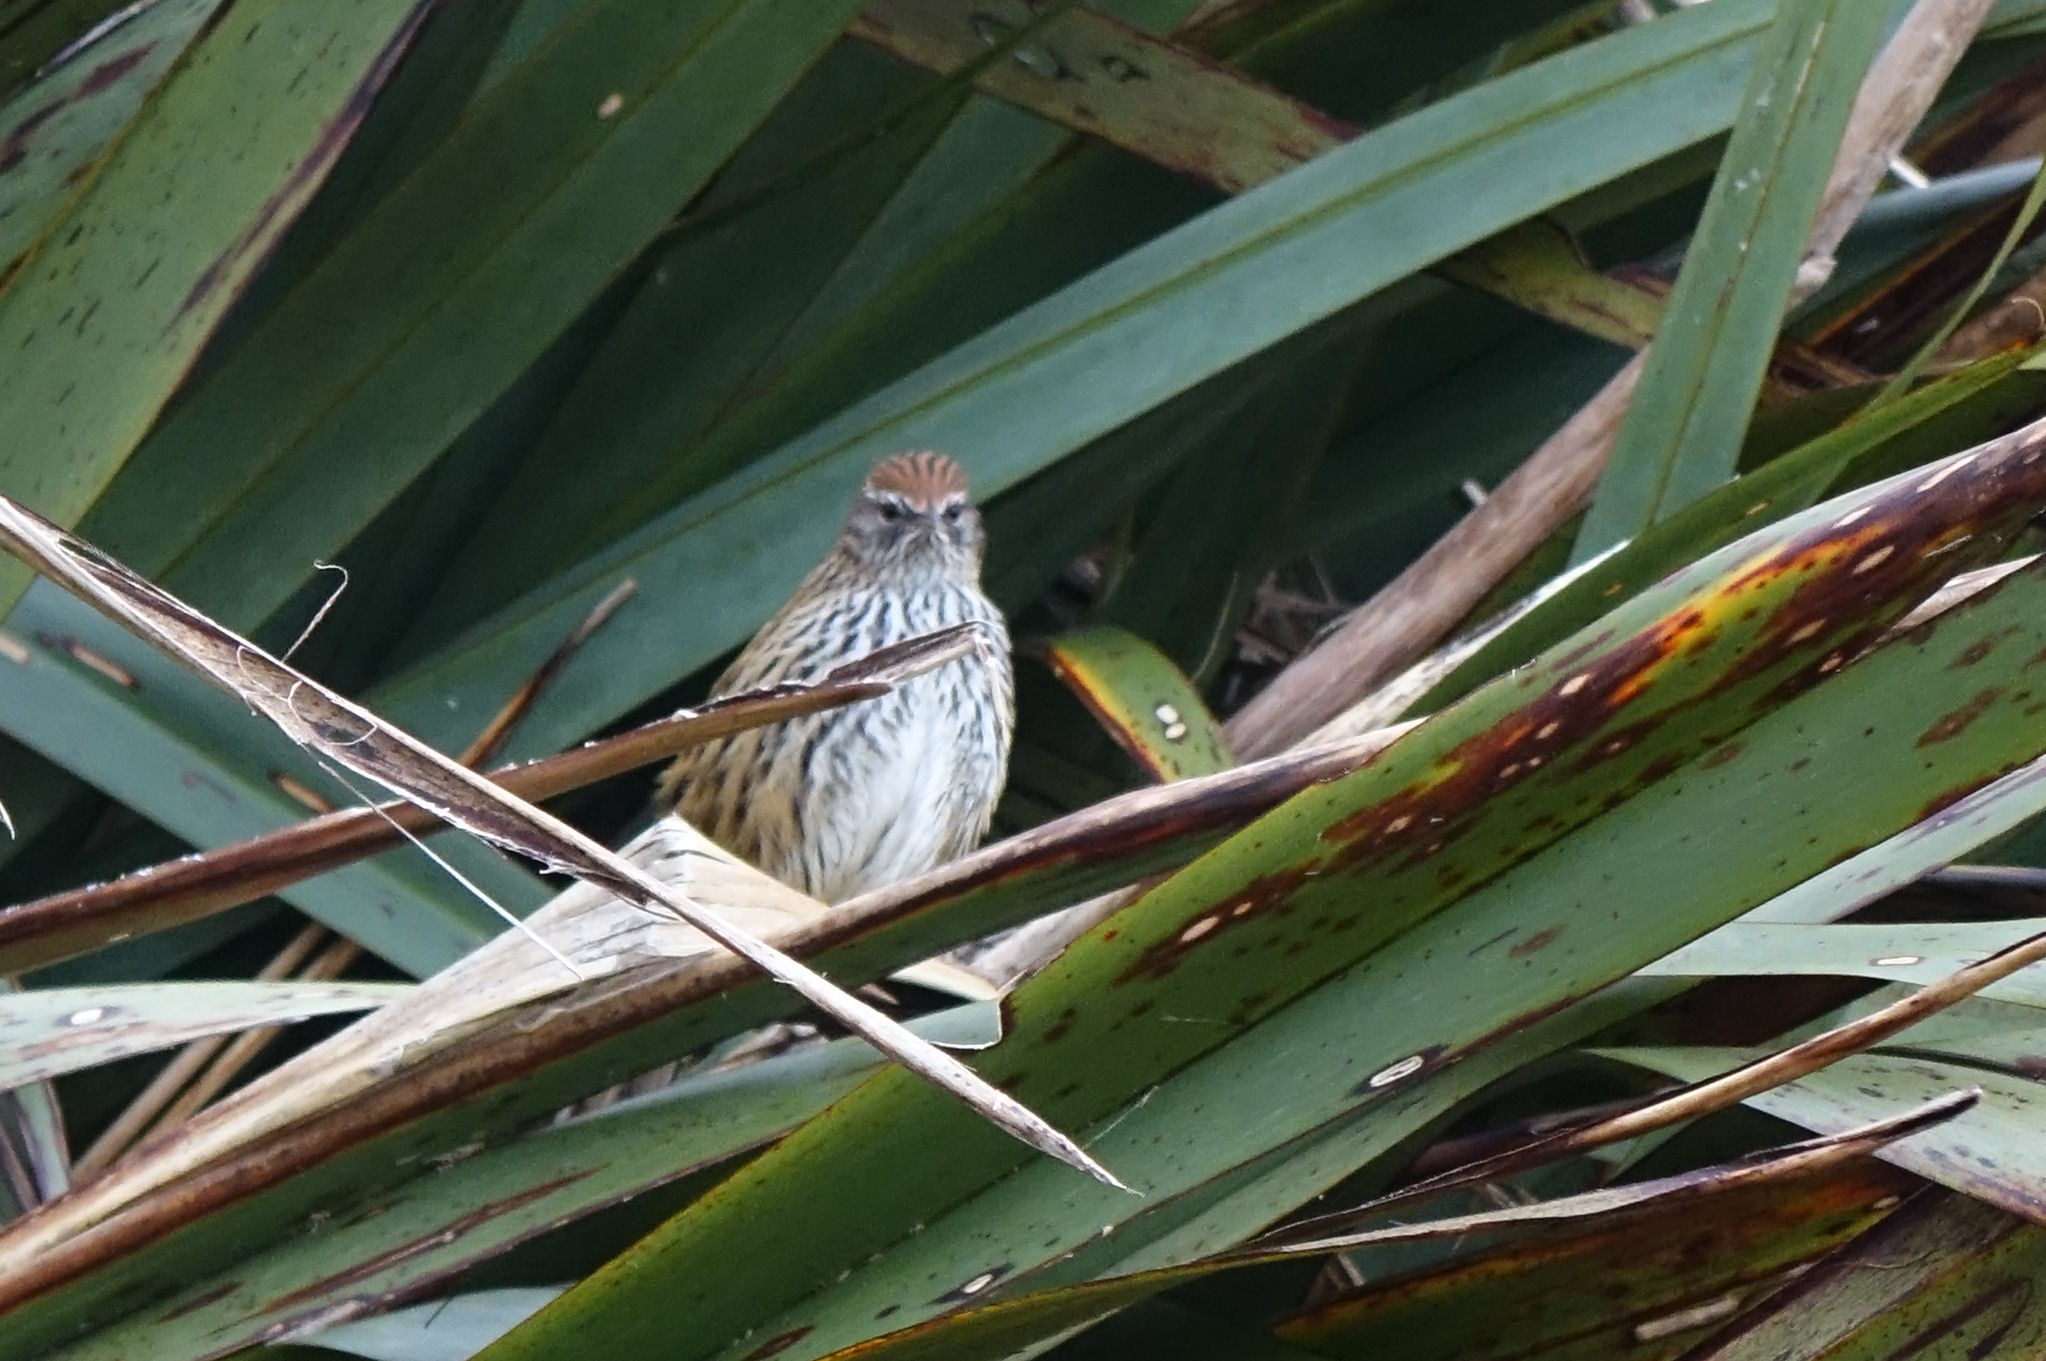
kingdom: Animalia
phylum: Chordata
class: Aves
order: Passeriformes
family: Locustellidae
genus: Poodytes
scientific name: Poodytes punctatus
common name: New zealand fernbird
